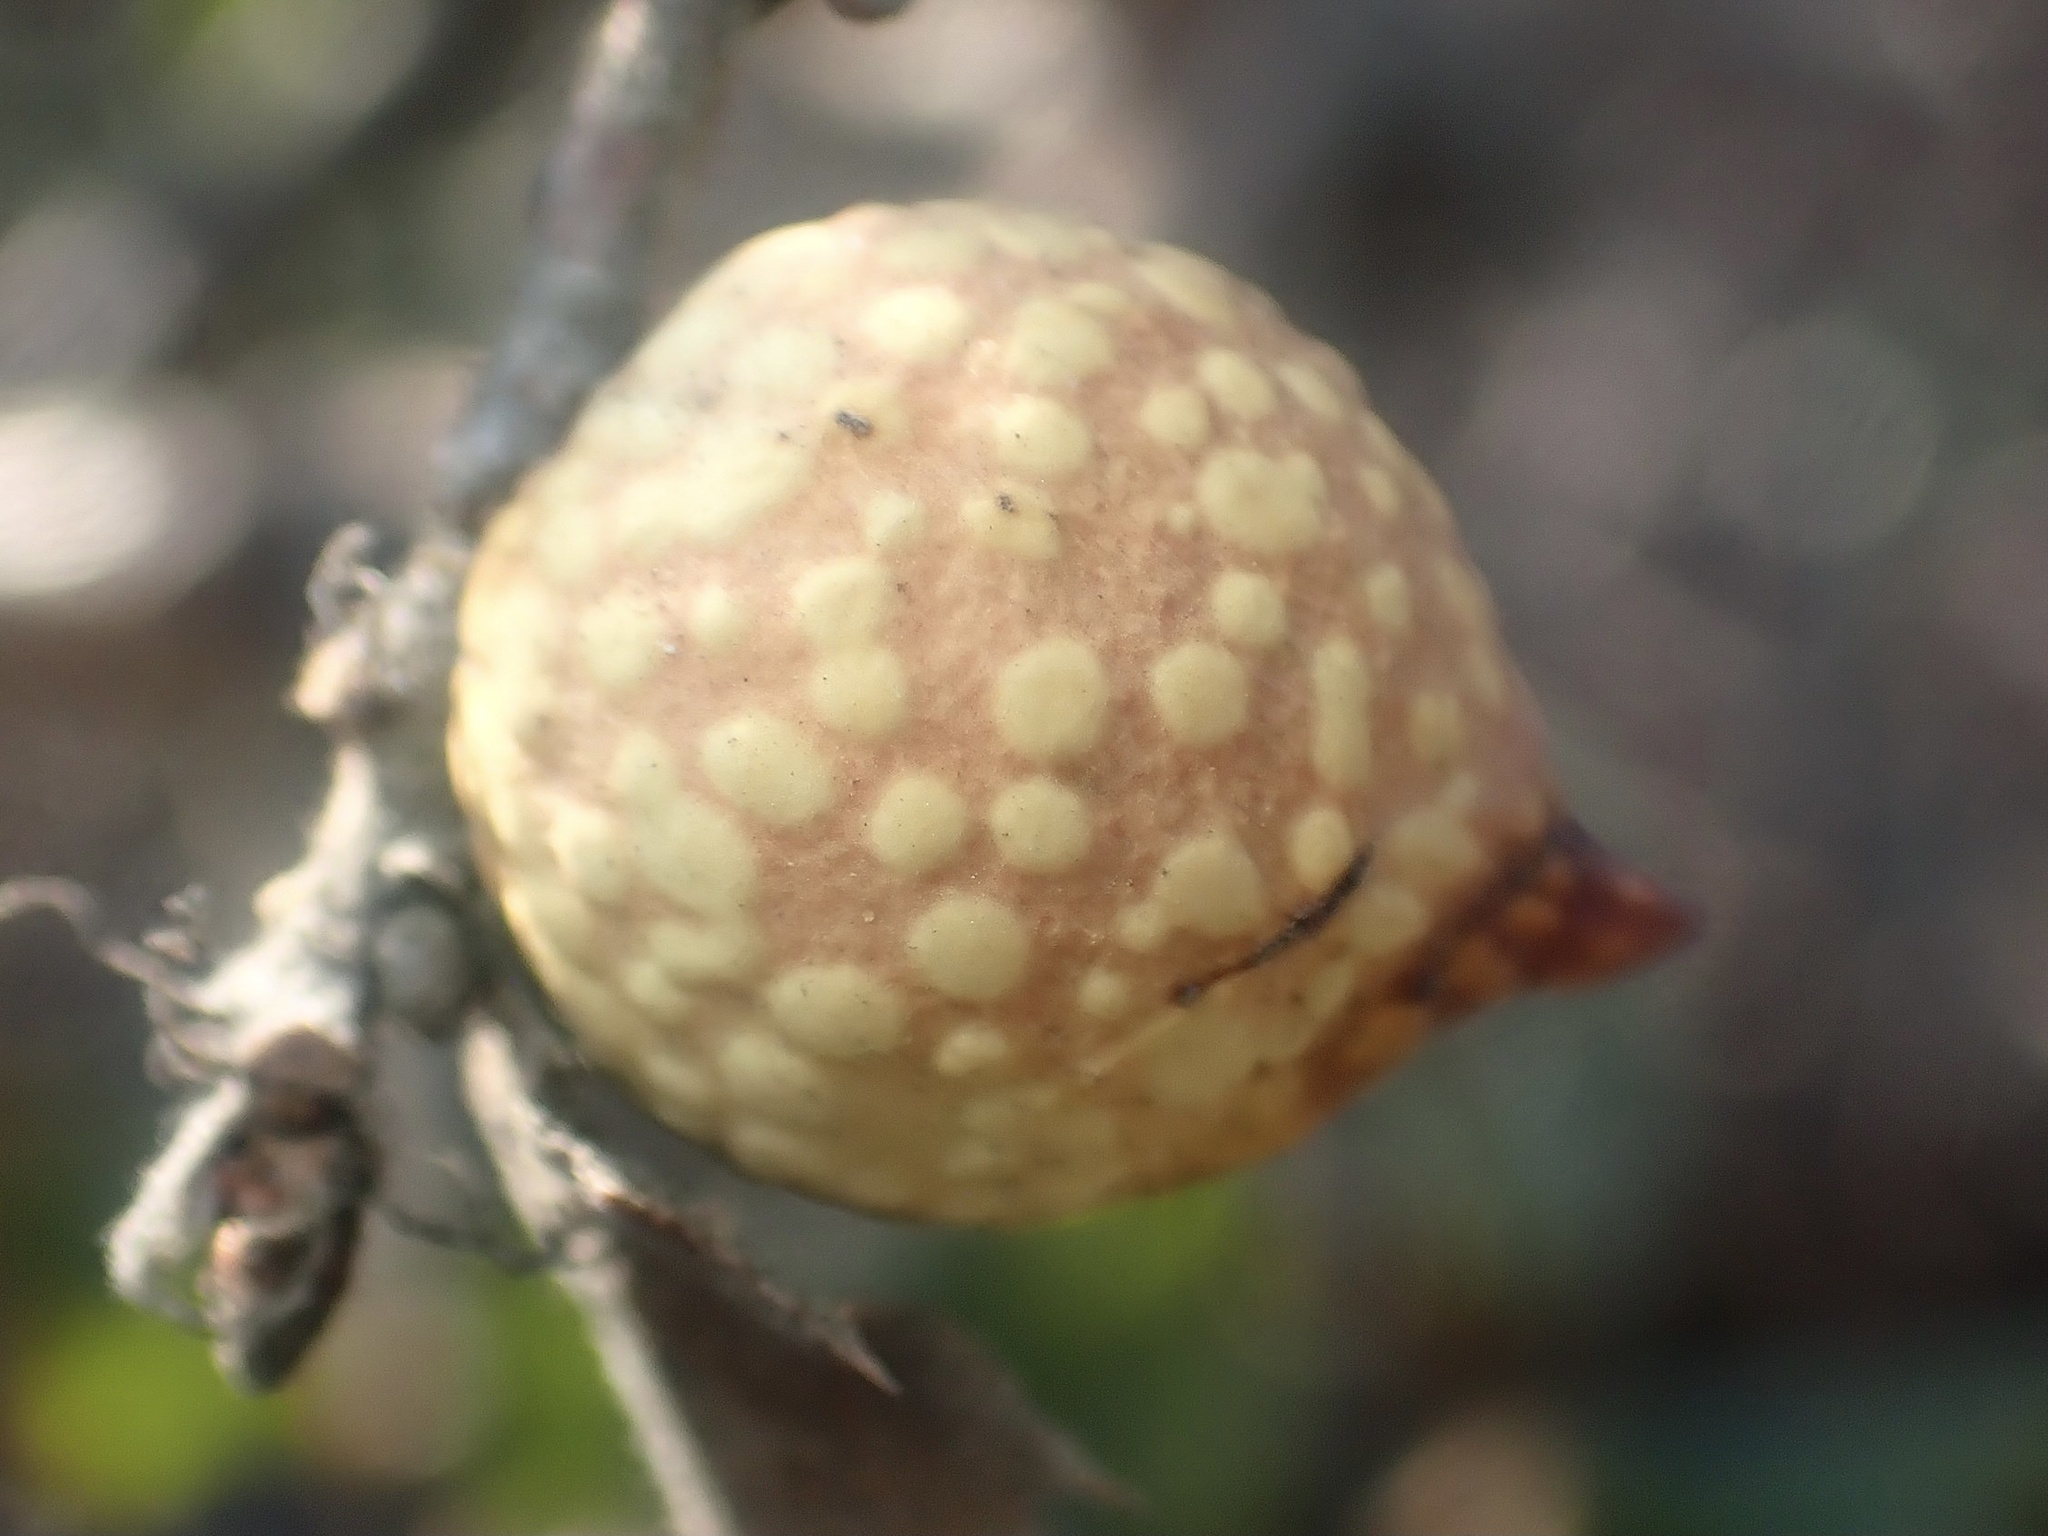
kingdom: Animalia
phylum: Arthropoda
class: Insecta
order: Hymenoptera
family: Cynipidae
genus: Burnettweldia
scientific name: Burnettweldia
